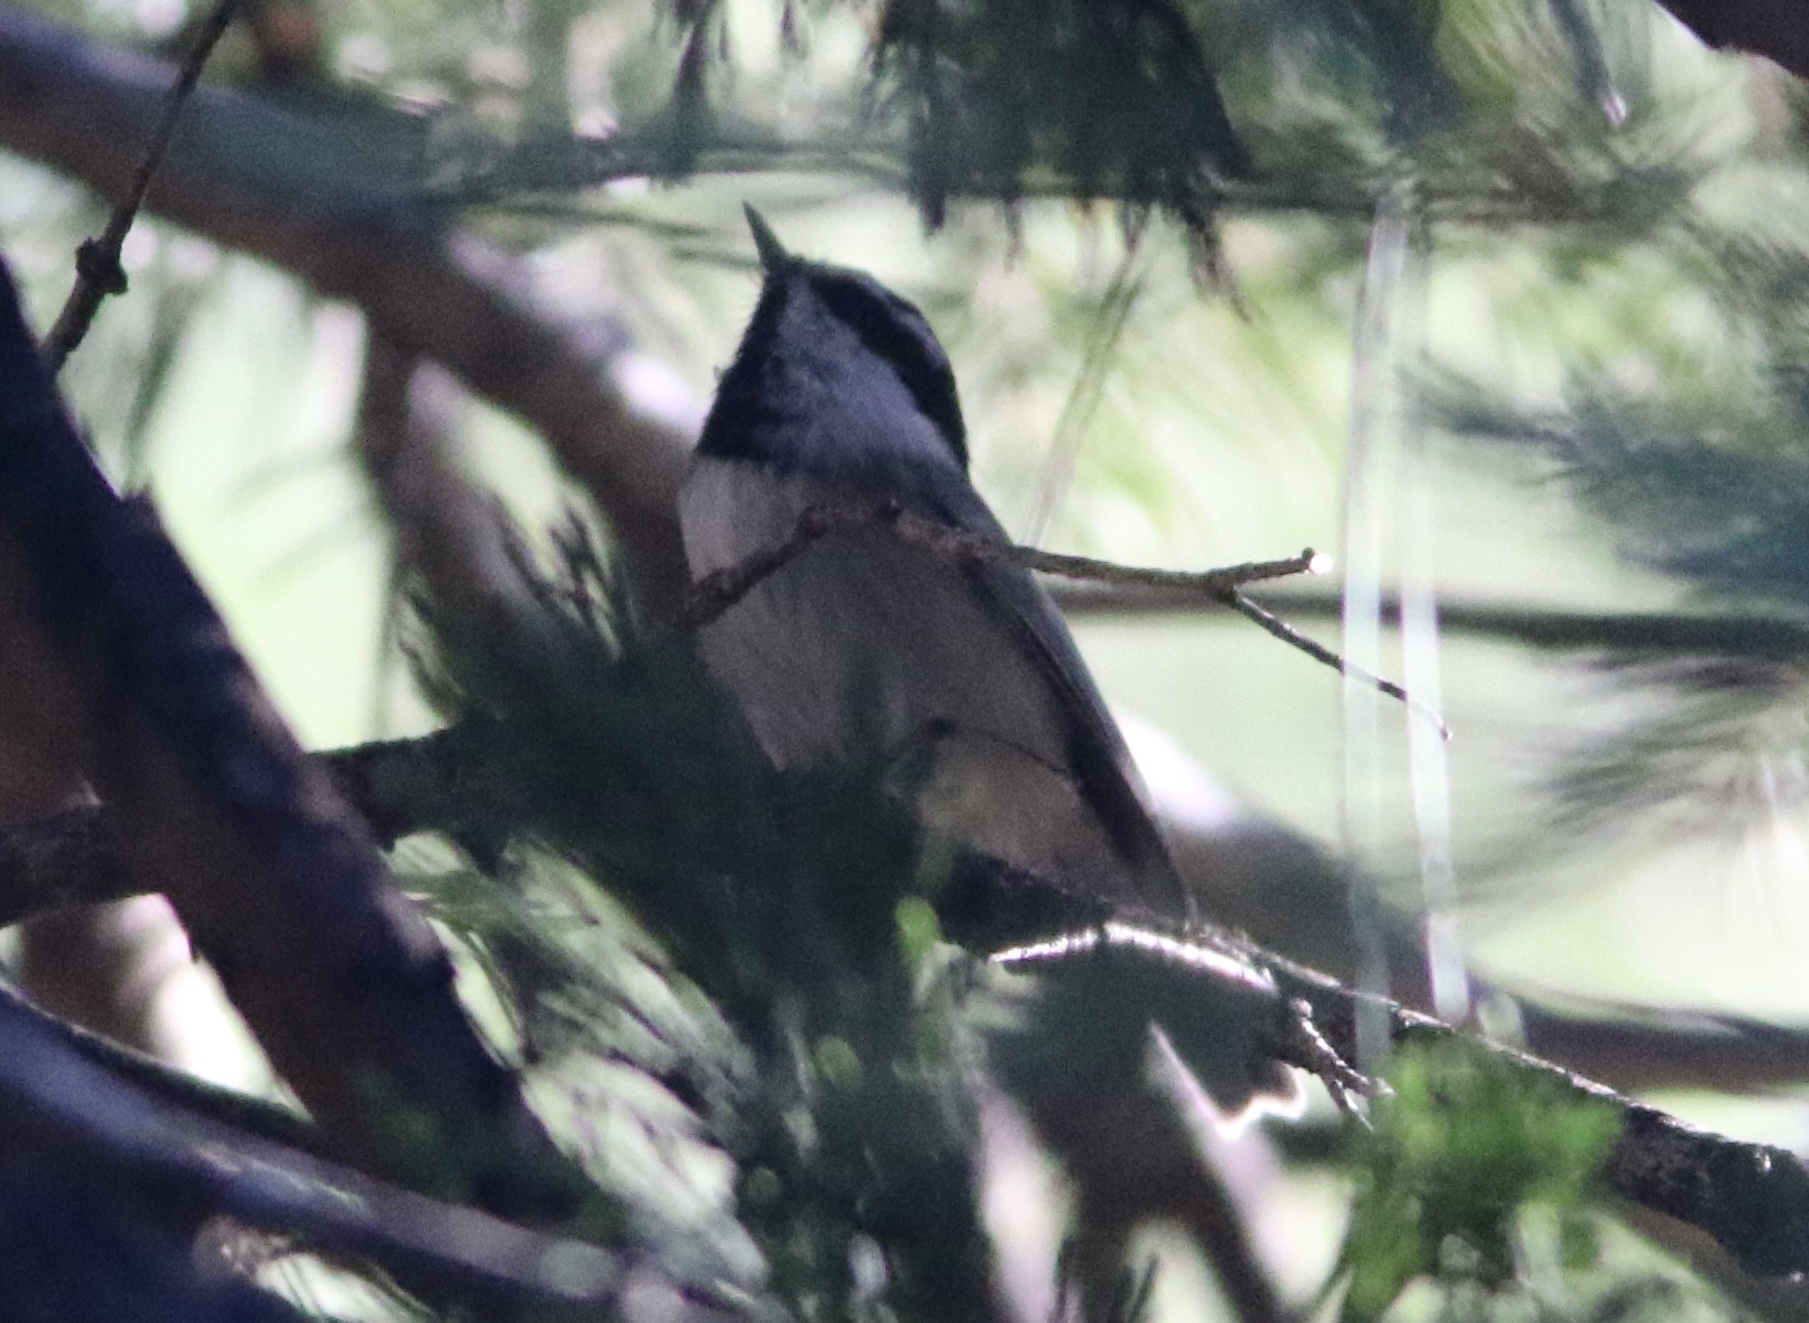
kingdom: Animalia
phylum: Chordata
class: Aves
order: Passeriformes
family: Paridae
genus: Poecile
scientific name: Poecile gambeli
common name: Mountain chickadee
